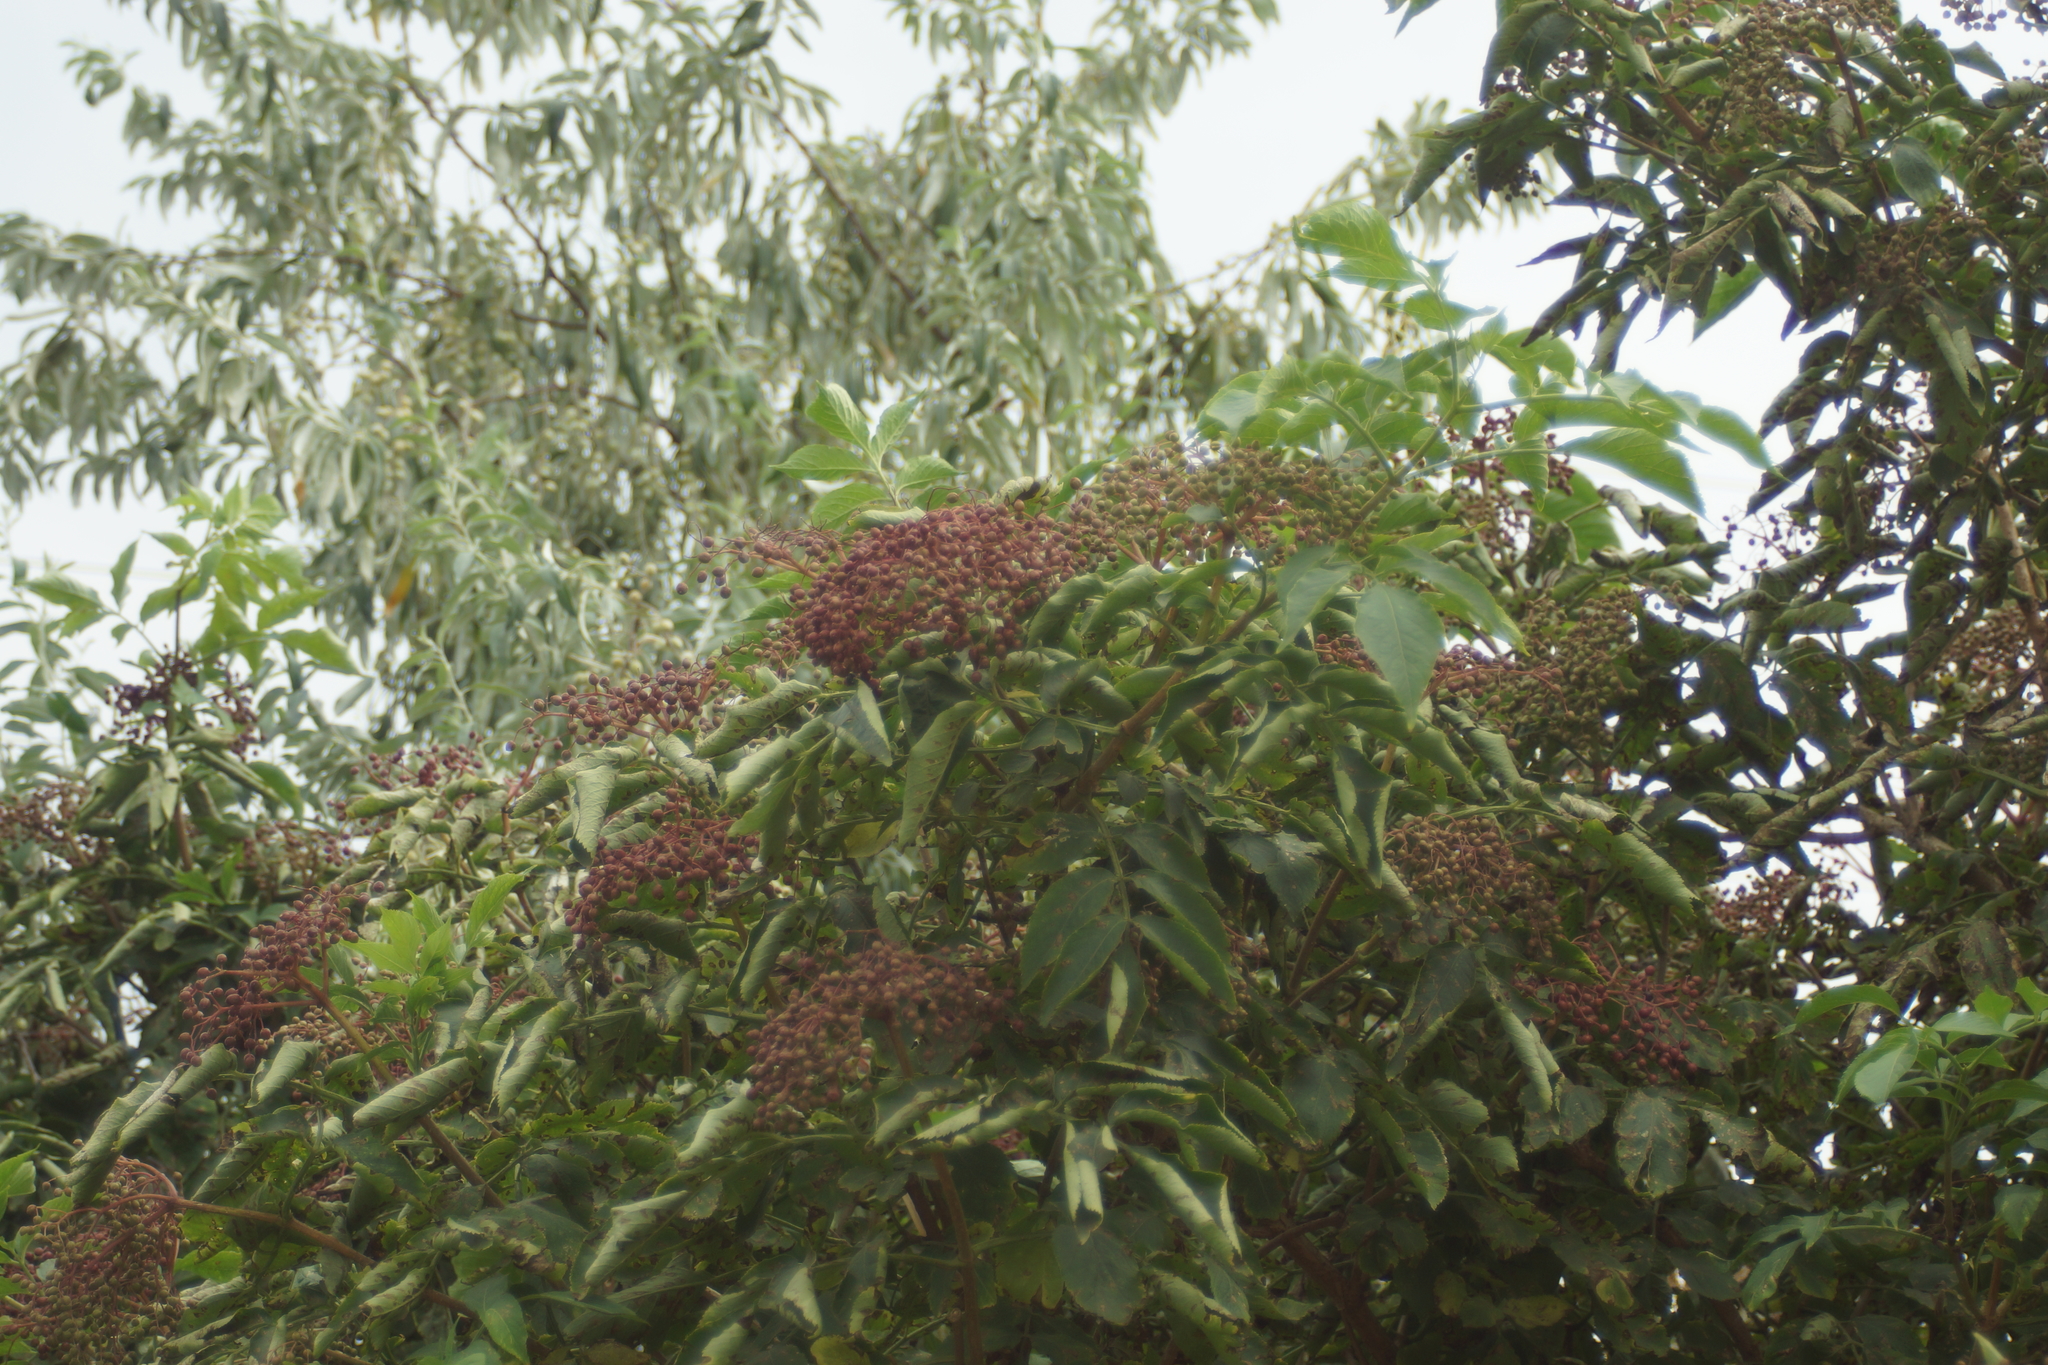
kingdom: Plantae
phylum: Tracheophyta
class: Magnoliopsida
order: Dipsacales
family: Viburnaceae
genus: Sambucus
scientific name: Sambucus nigra
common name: Elder
